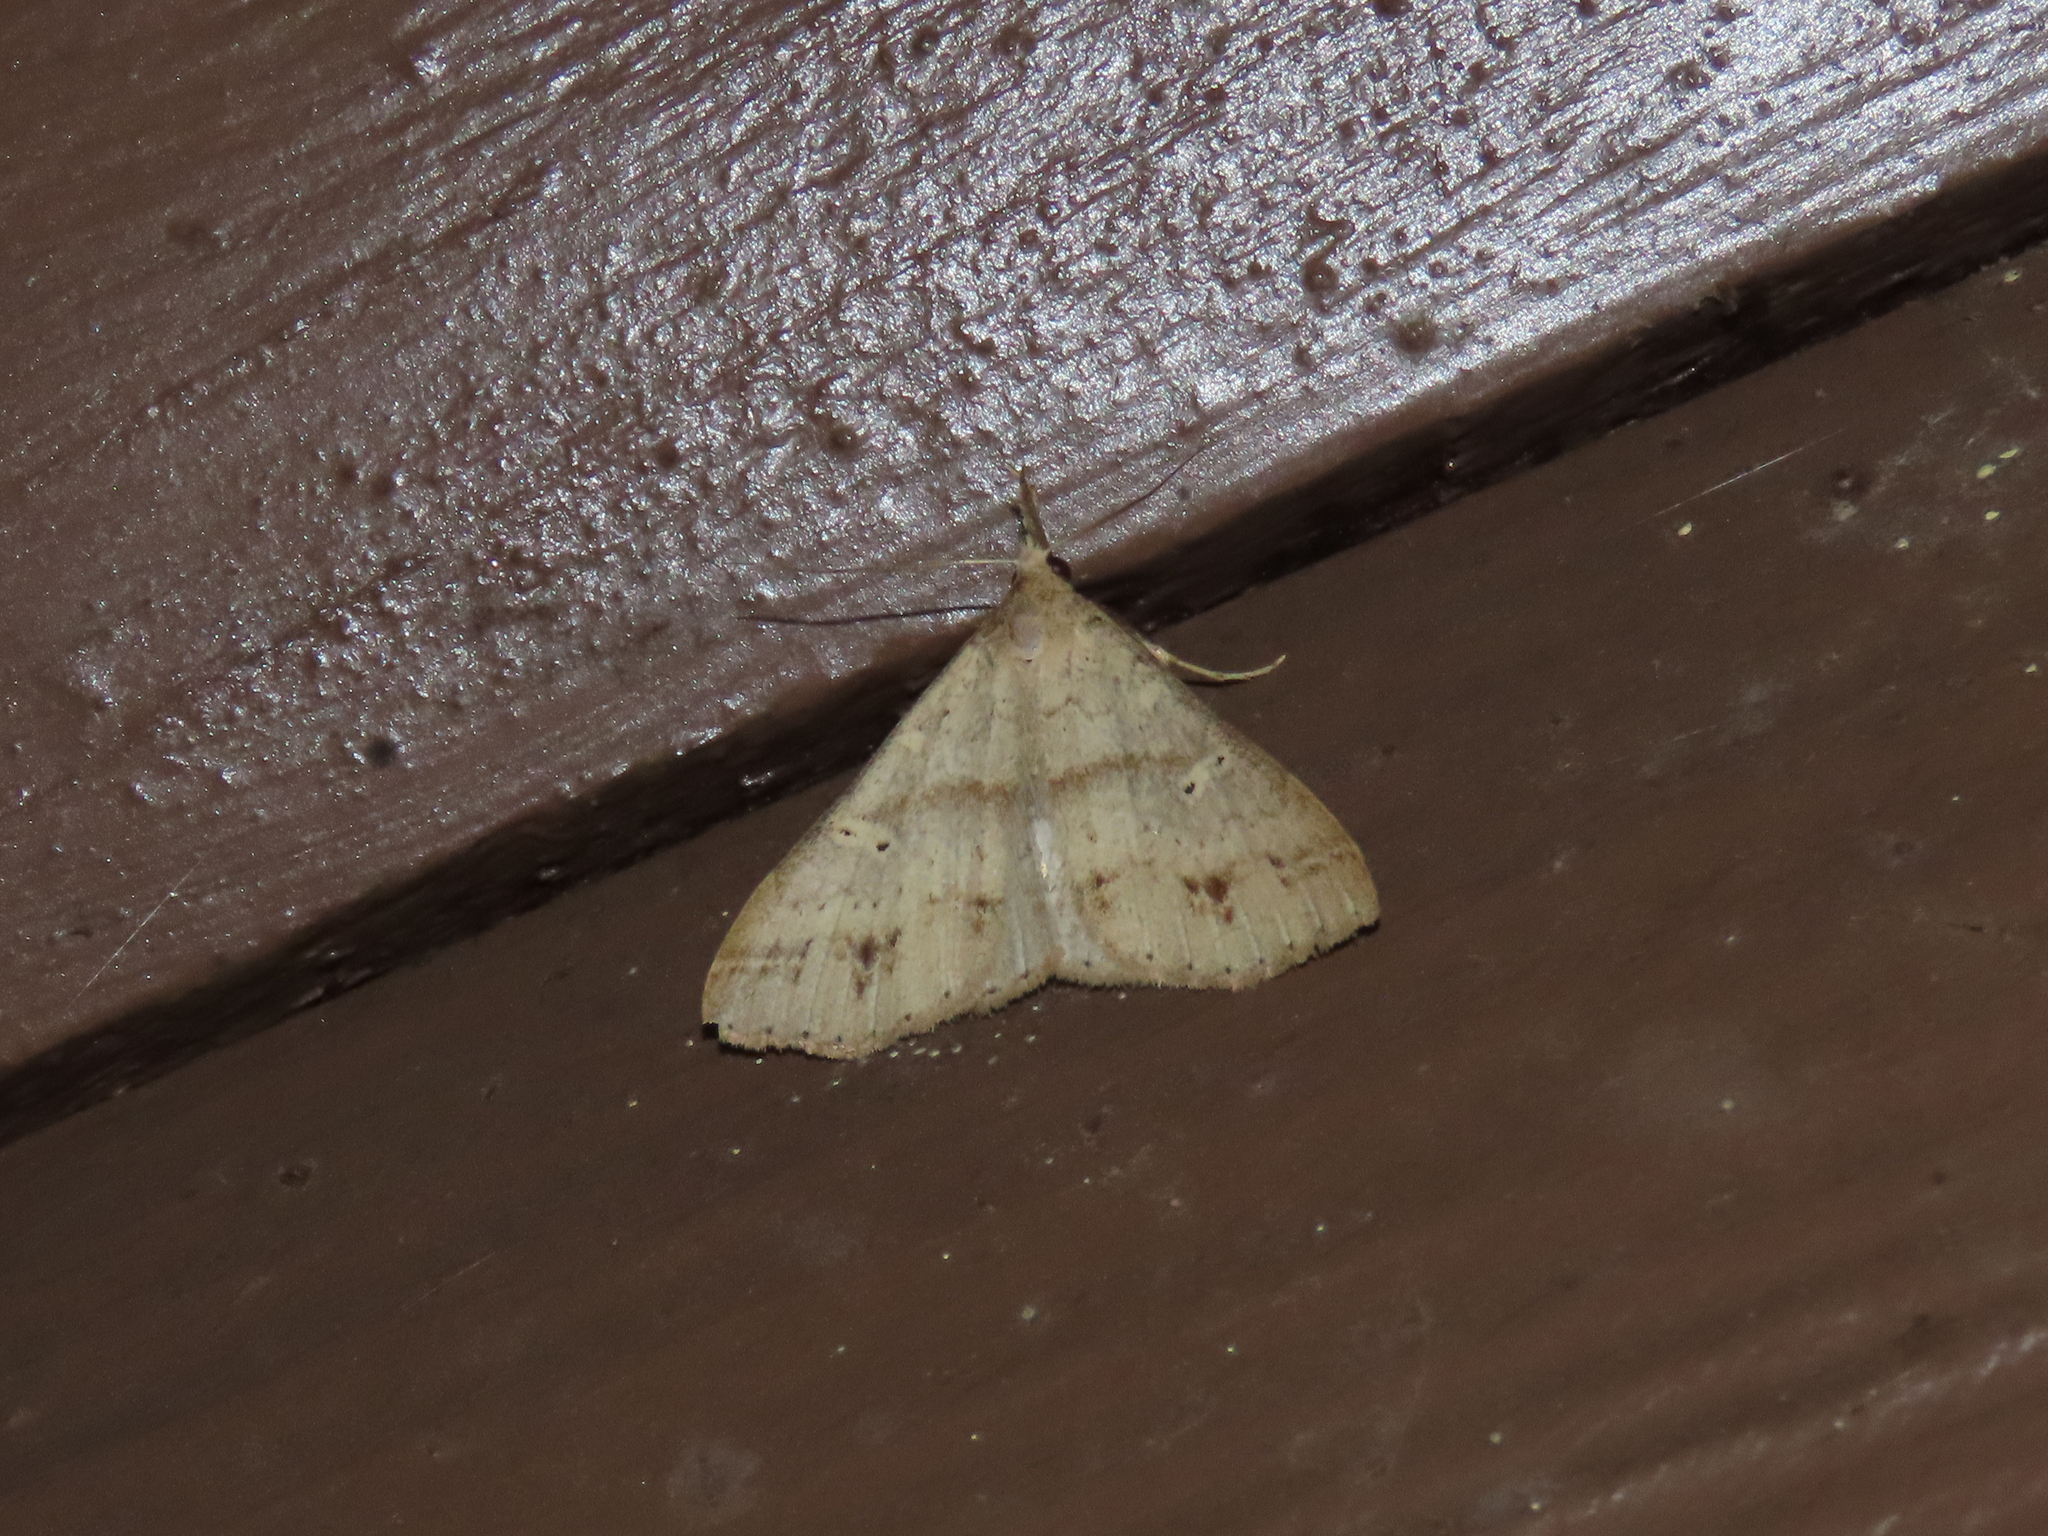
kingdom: Animalia
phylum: Arthropoda
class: Insecta
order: Lepidoptera
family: Erebidae
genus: Renia
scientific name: Renia discoloralis
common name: Discolored renia moth
